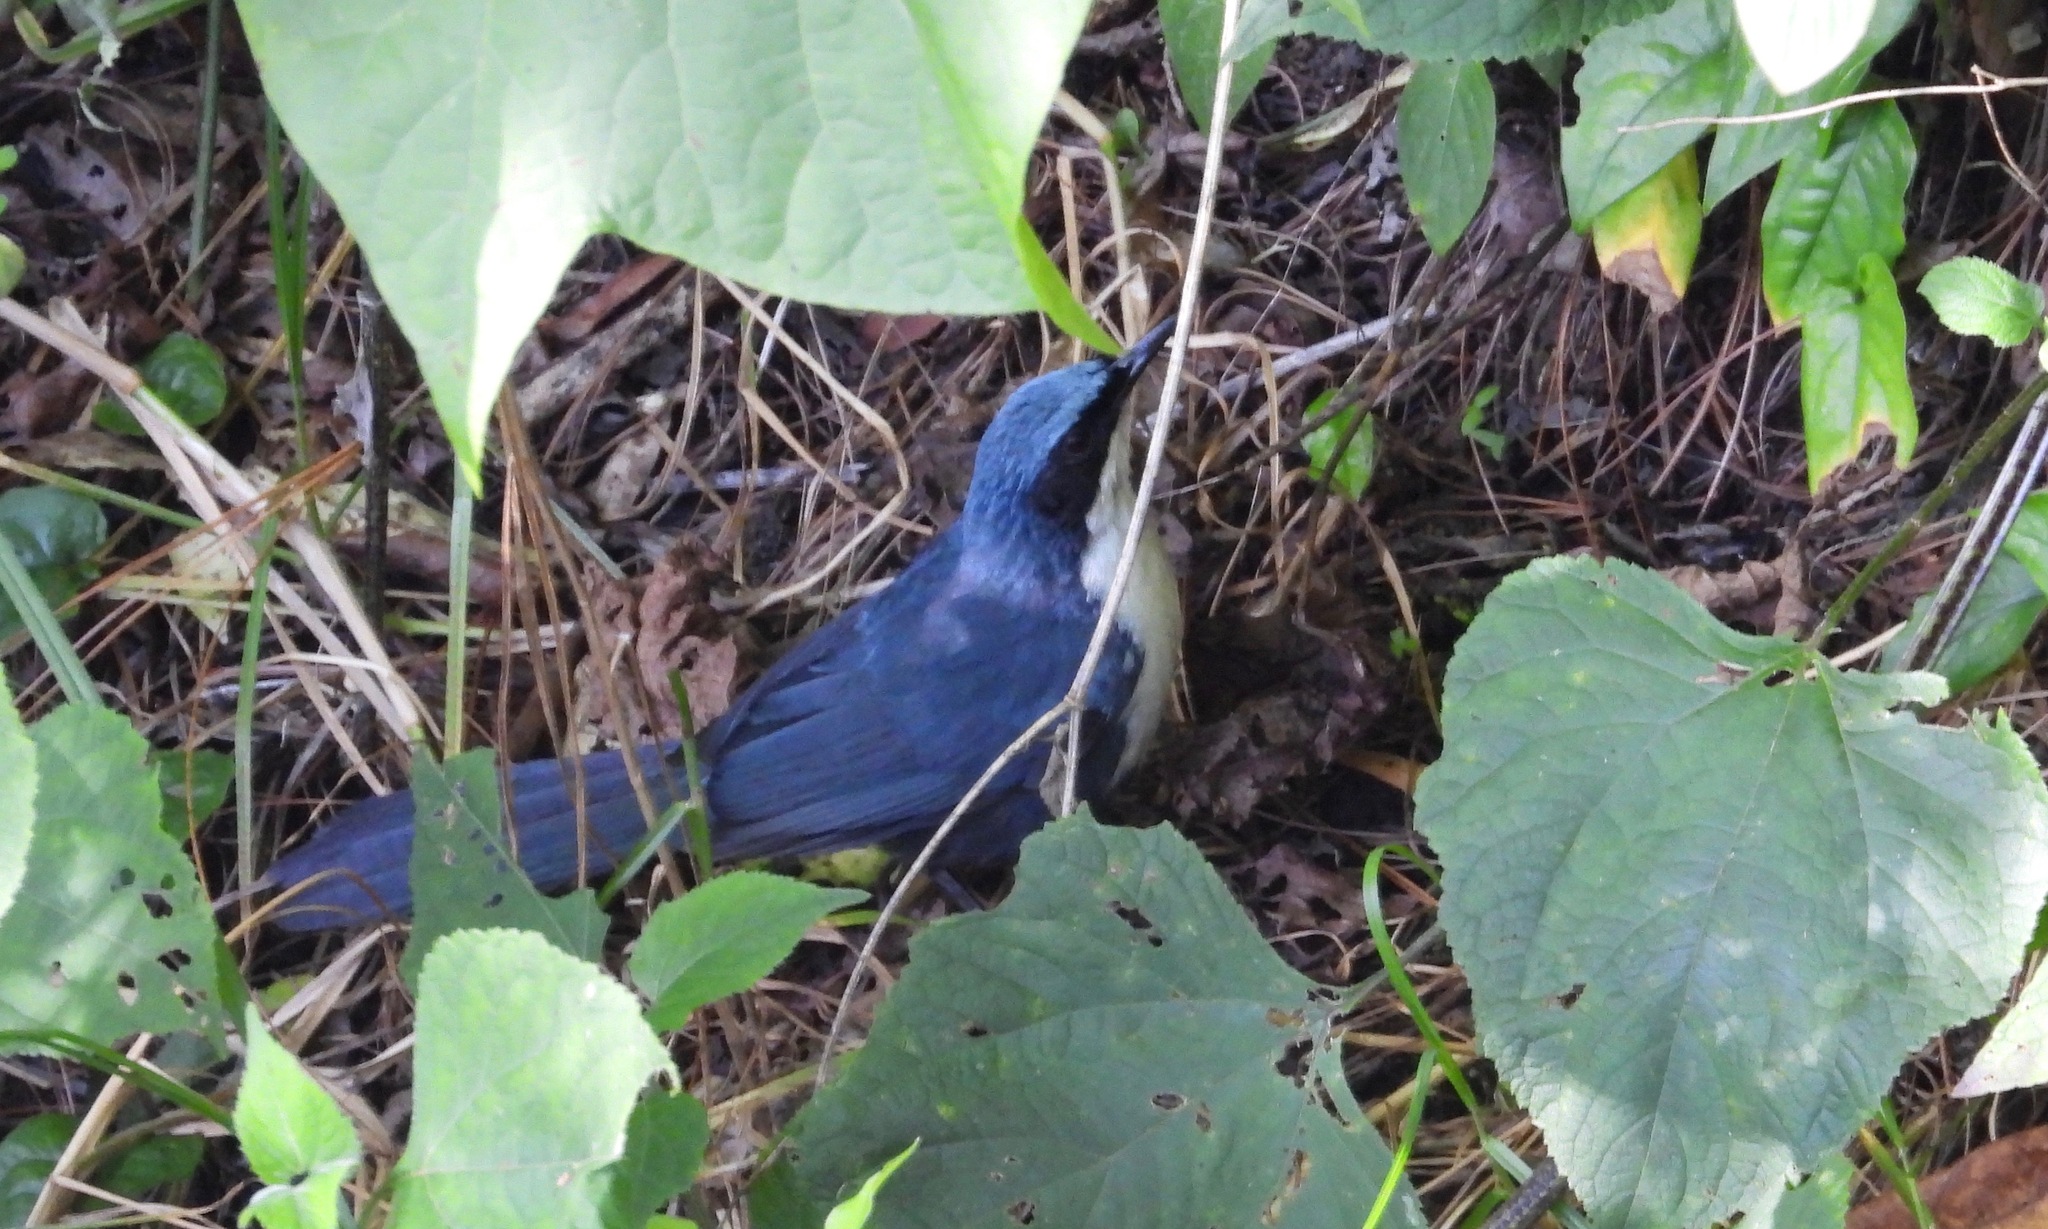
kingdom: Animalia
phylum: Chordata
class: Aves
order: Passeriformes
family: Mimidae
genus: Melanotis
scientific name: Melanotis hypoleucus
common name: Blue-and-white mockingbird
